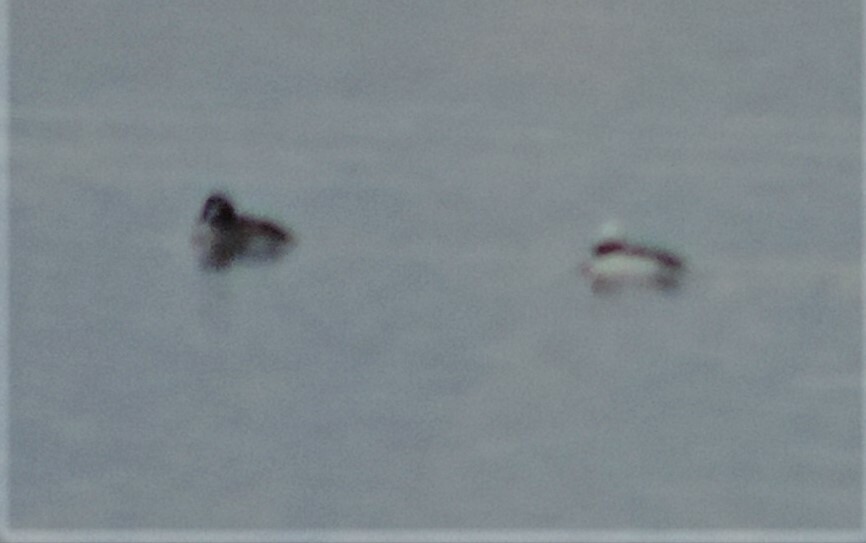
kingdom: Animalia
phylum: Chordata
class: Aves
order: Anseriformes
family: Anatidae
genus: Bucephala
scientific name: Bucephala albeola
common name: Bufflehead
